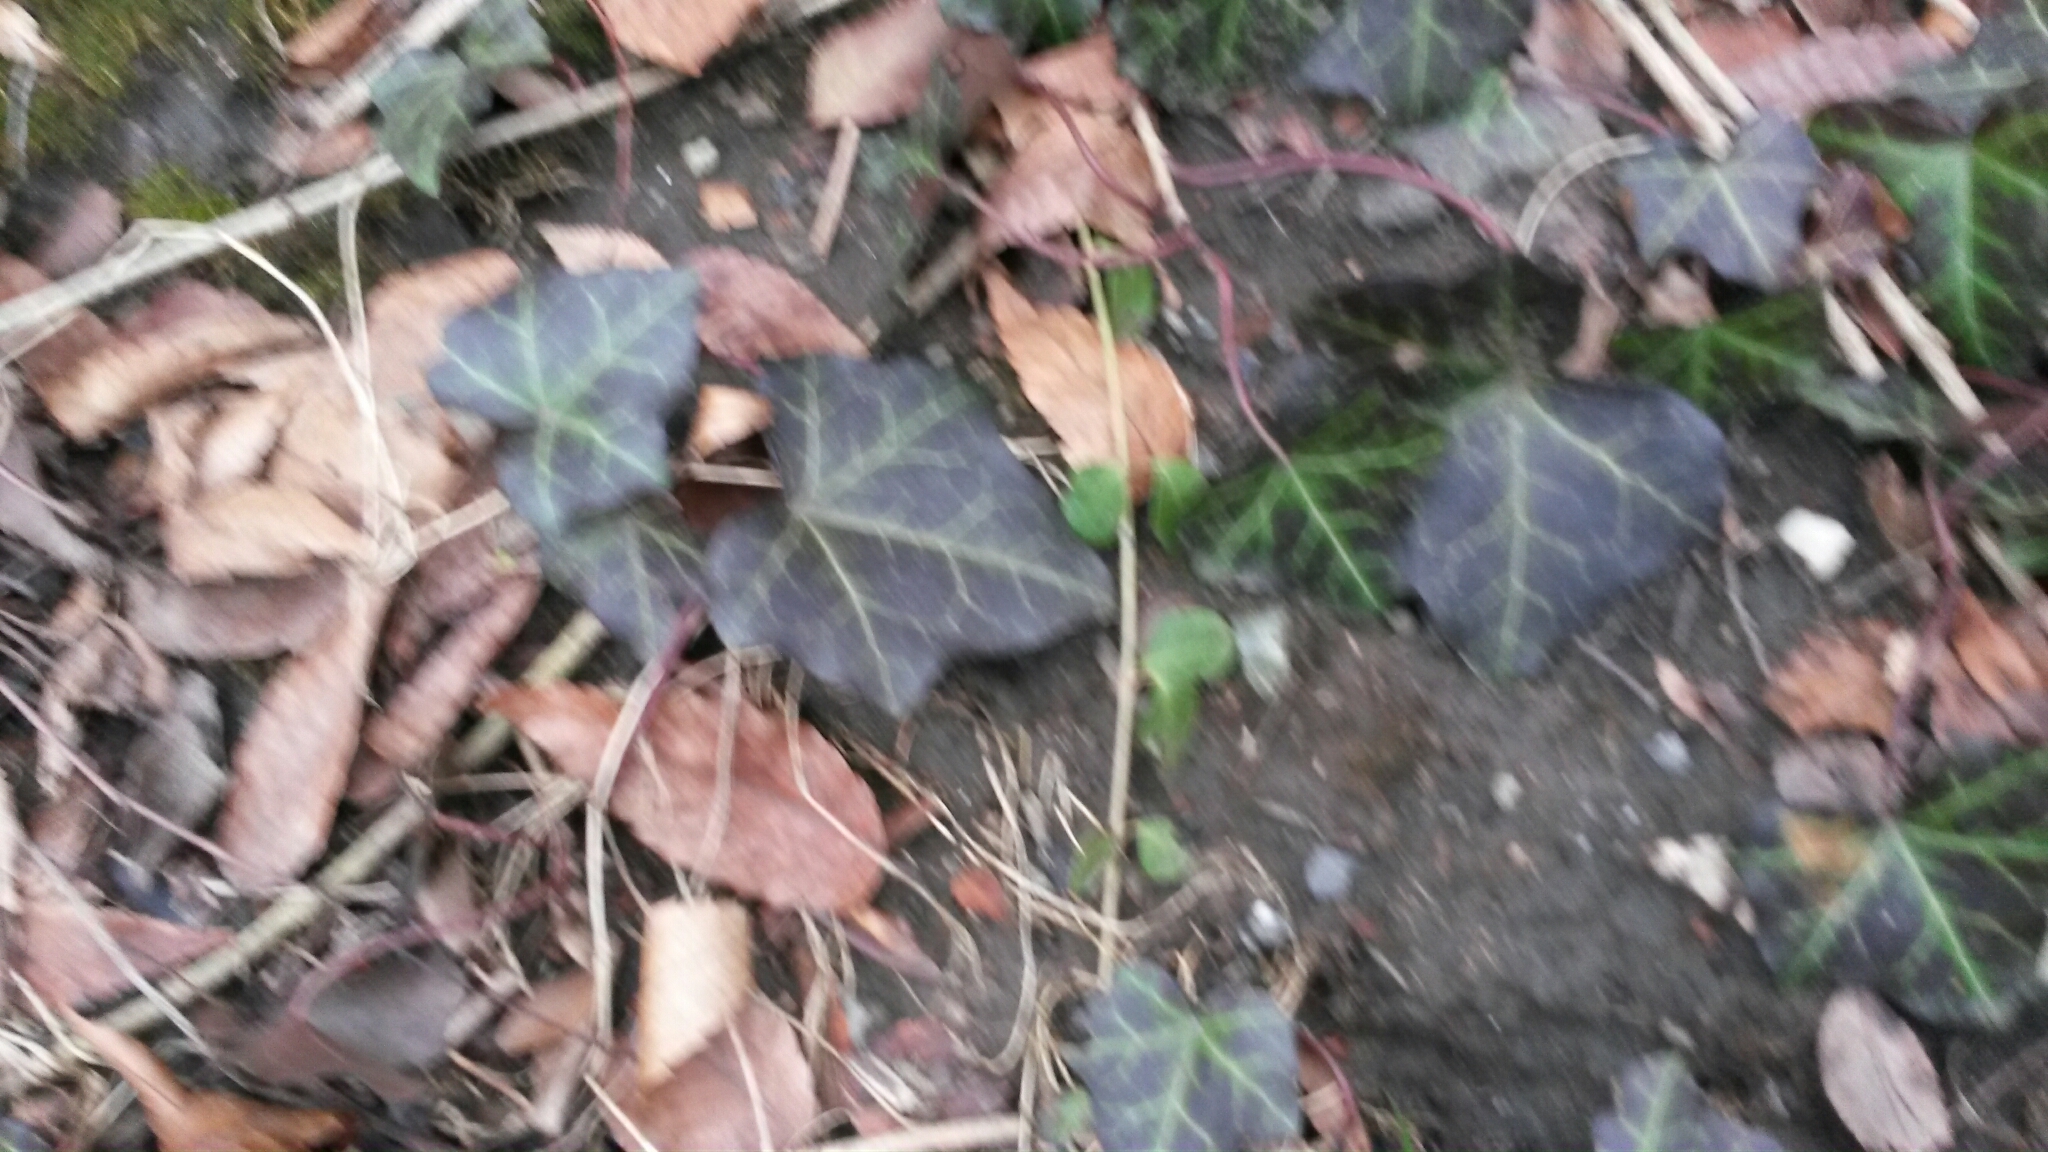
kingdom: Plantae
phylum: Tracheophyta
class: Magnoliopsida
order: Apiales
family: Araliaceae
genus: Hedera
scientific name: Hedera helix
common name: Ivy
